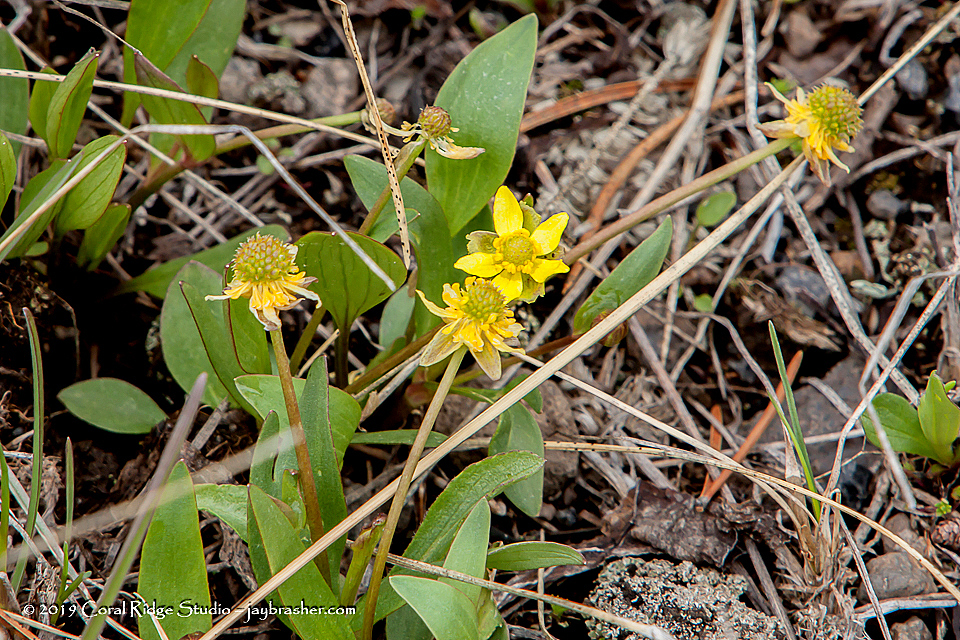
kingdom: Plantae
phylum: Tracheophyta
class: Magnoliopsida
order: Ranunculales
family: Ranunculaceae
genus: Ranunculus
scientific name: Ranunculus glaberrimus
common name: Sagebrush buttercup
